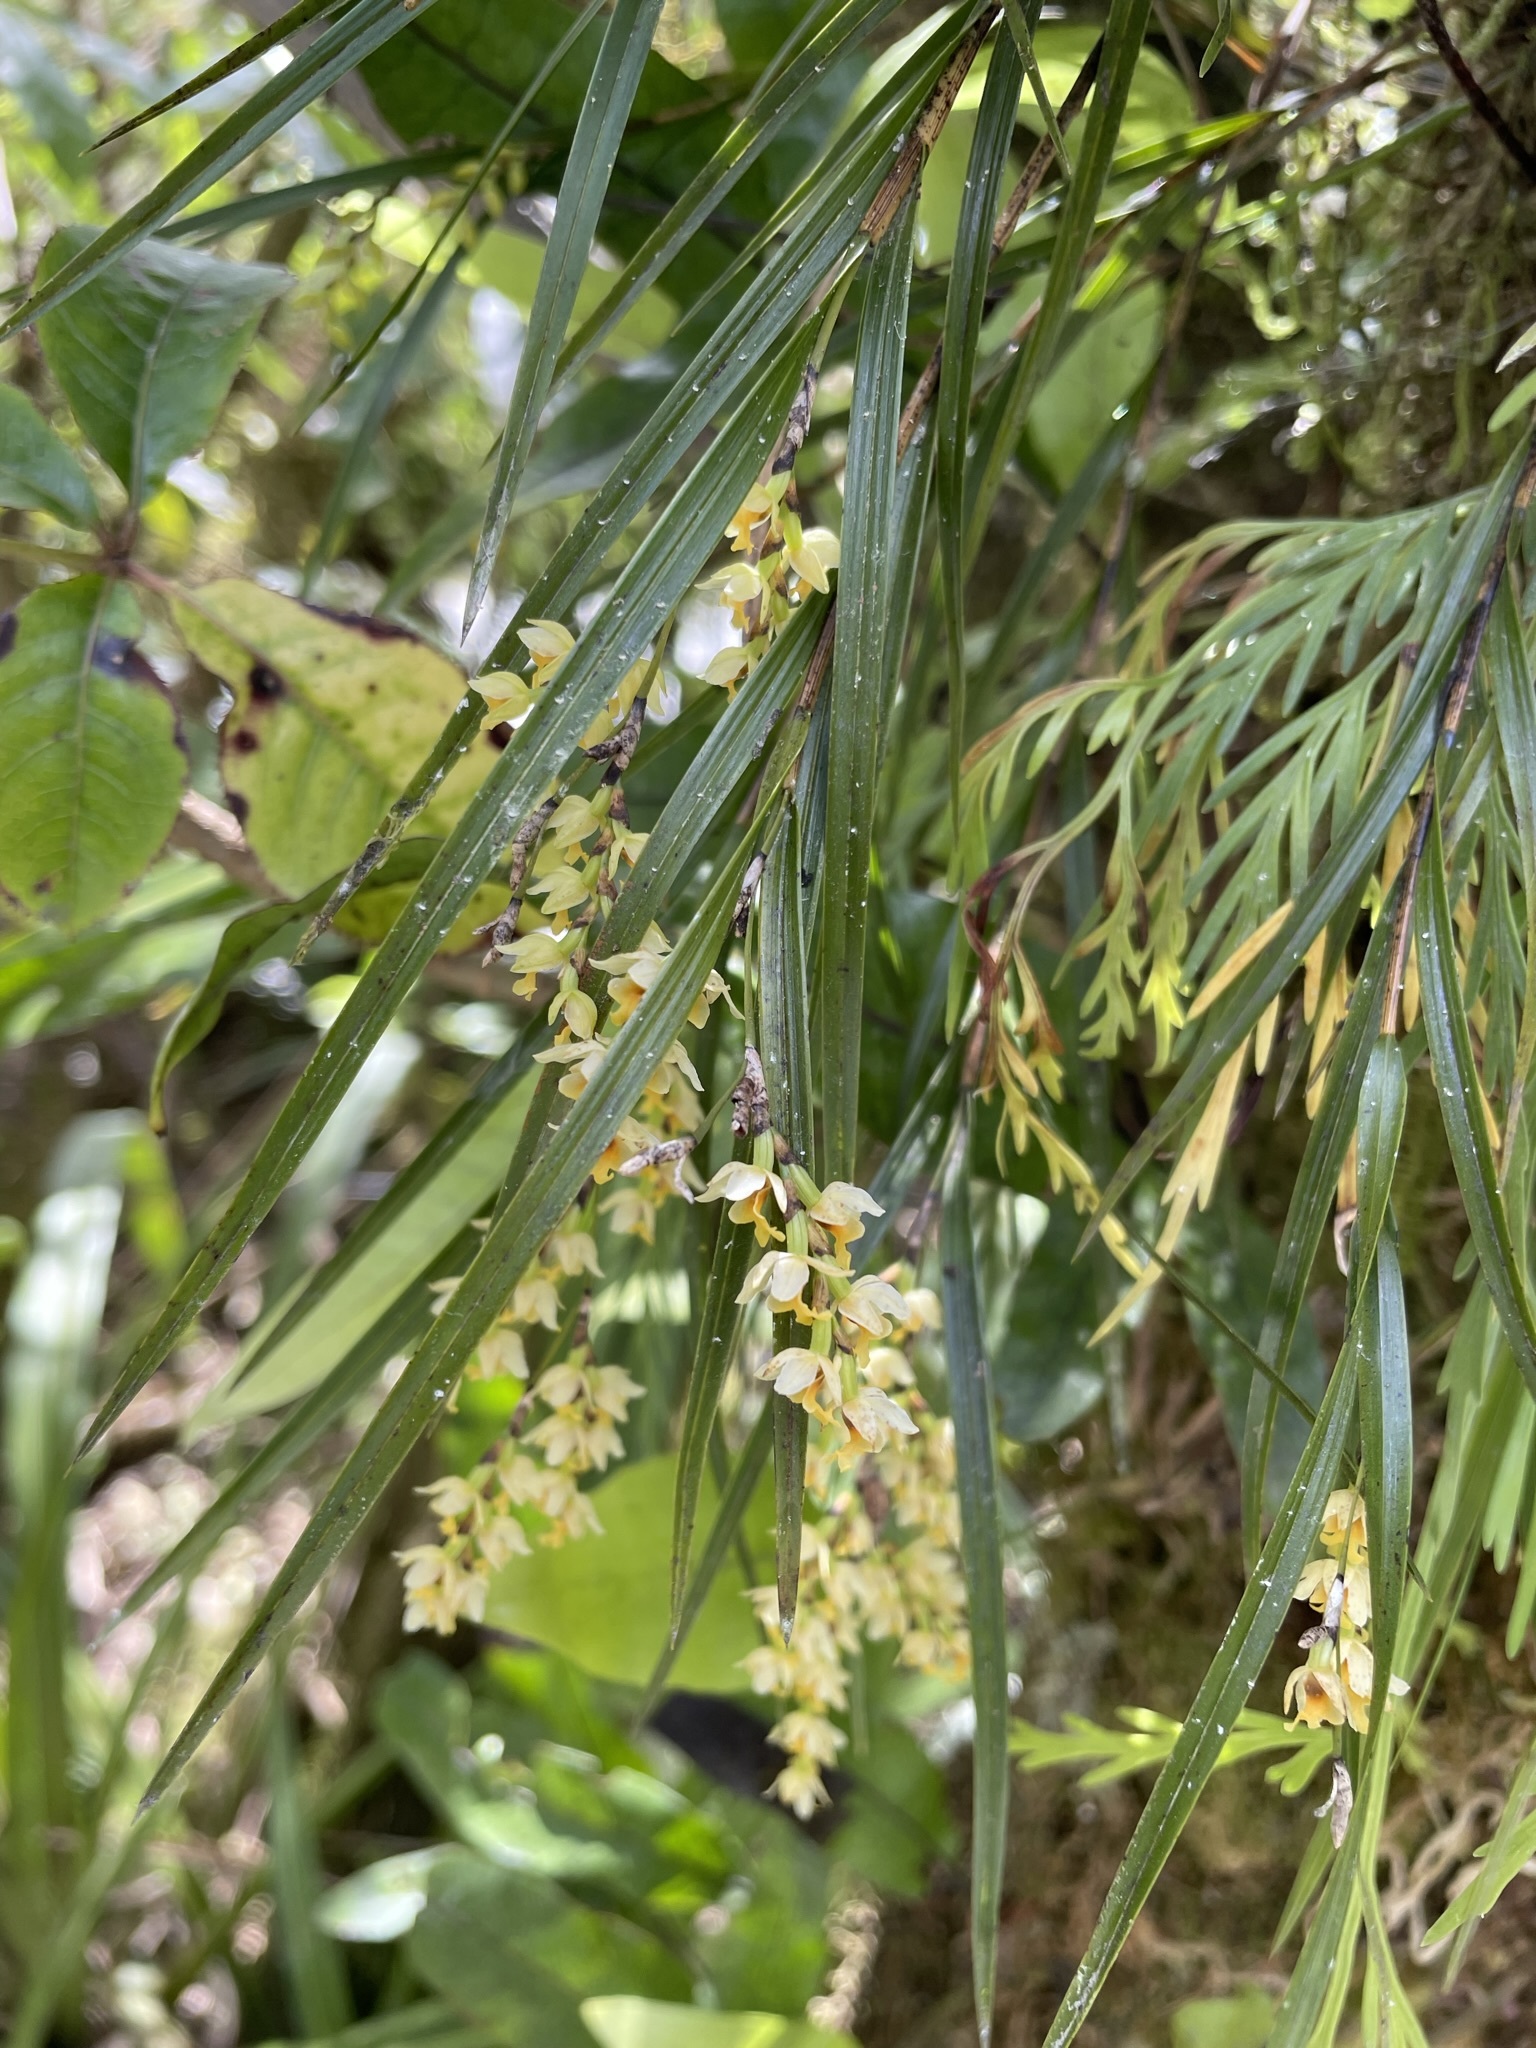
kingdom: Plantae
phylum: Tracheophyta
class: Liliopsida
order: Asparagales
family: Orchidaceae
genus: Earina
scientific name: Earina mucronata
